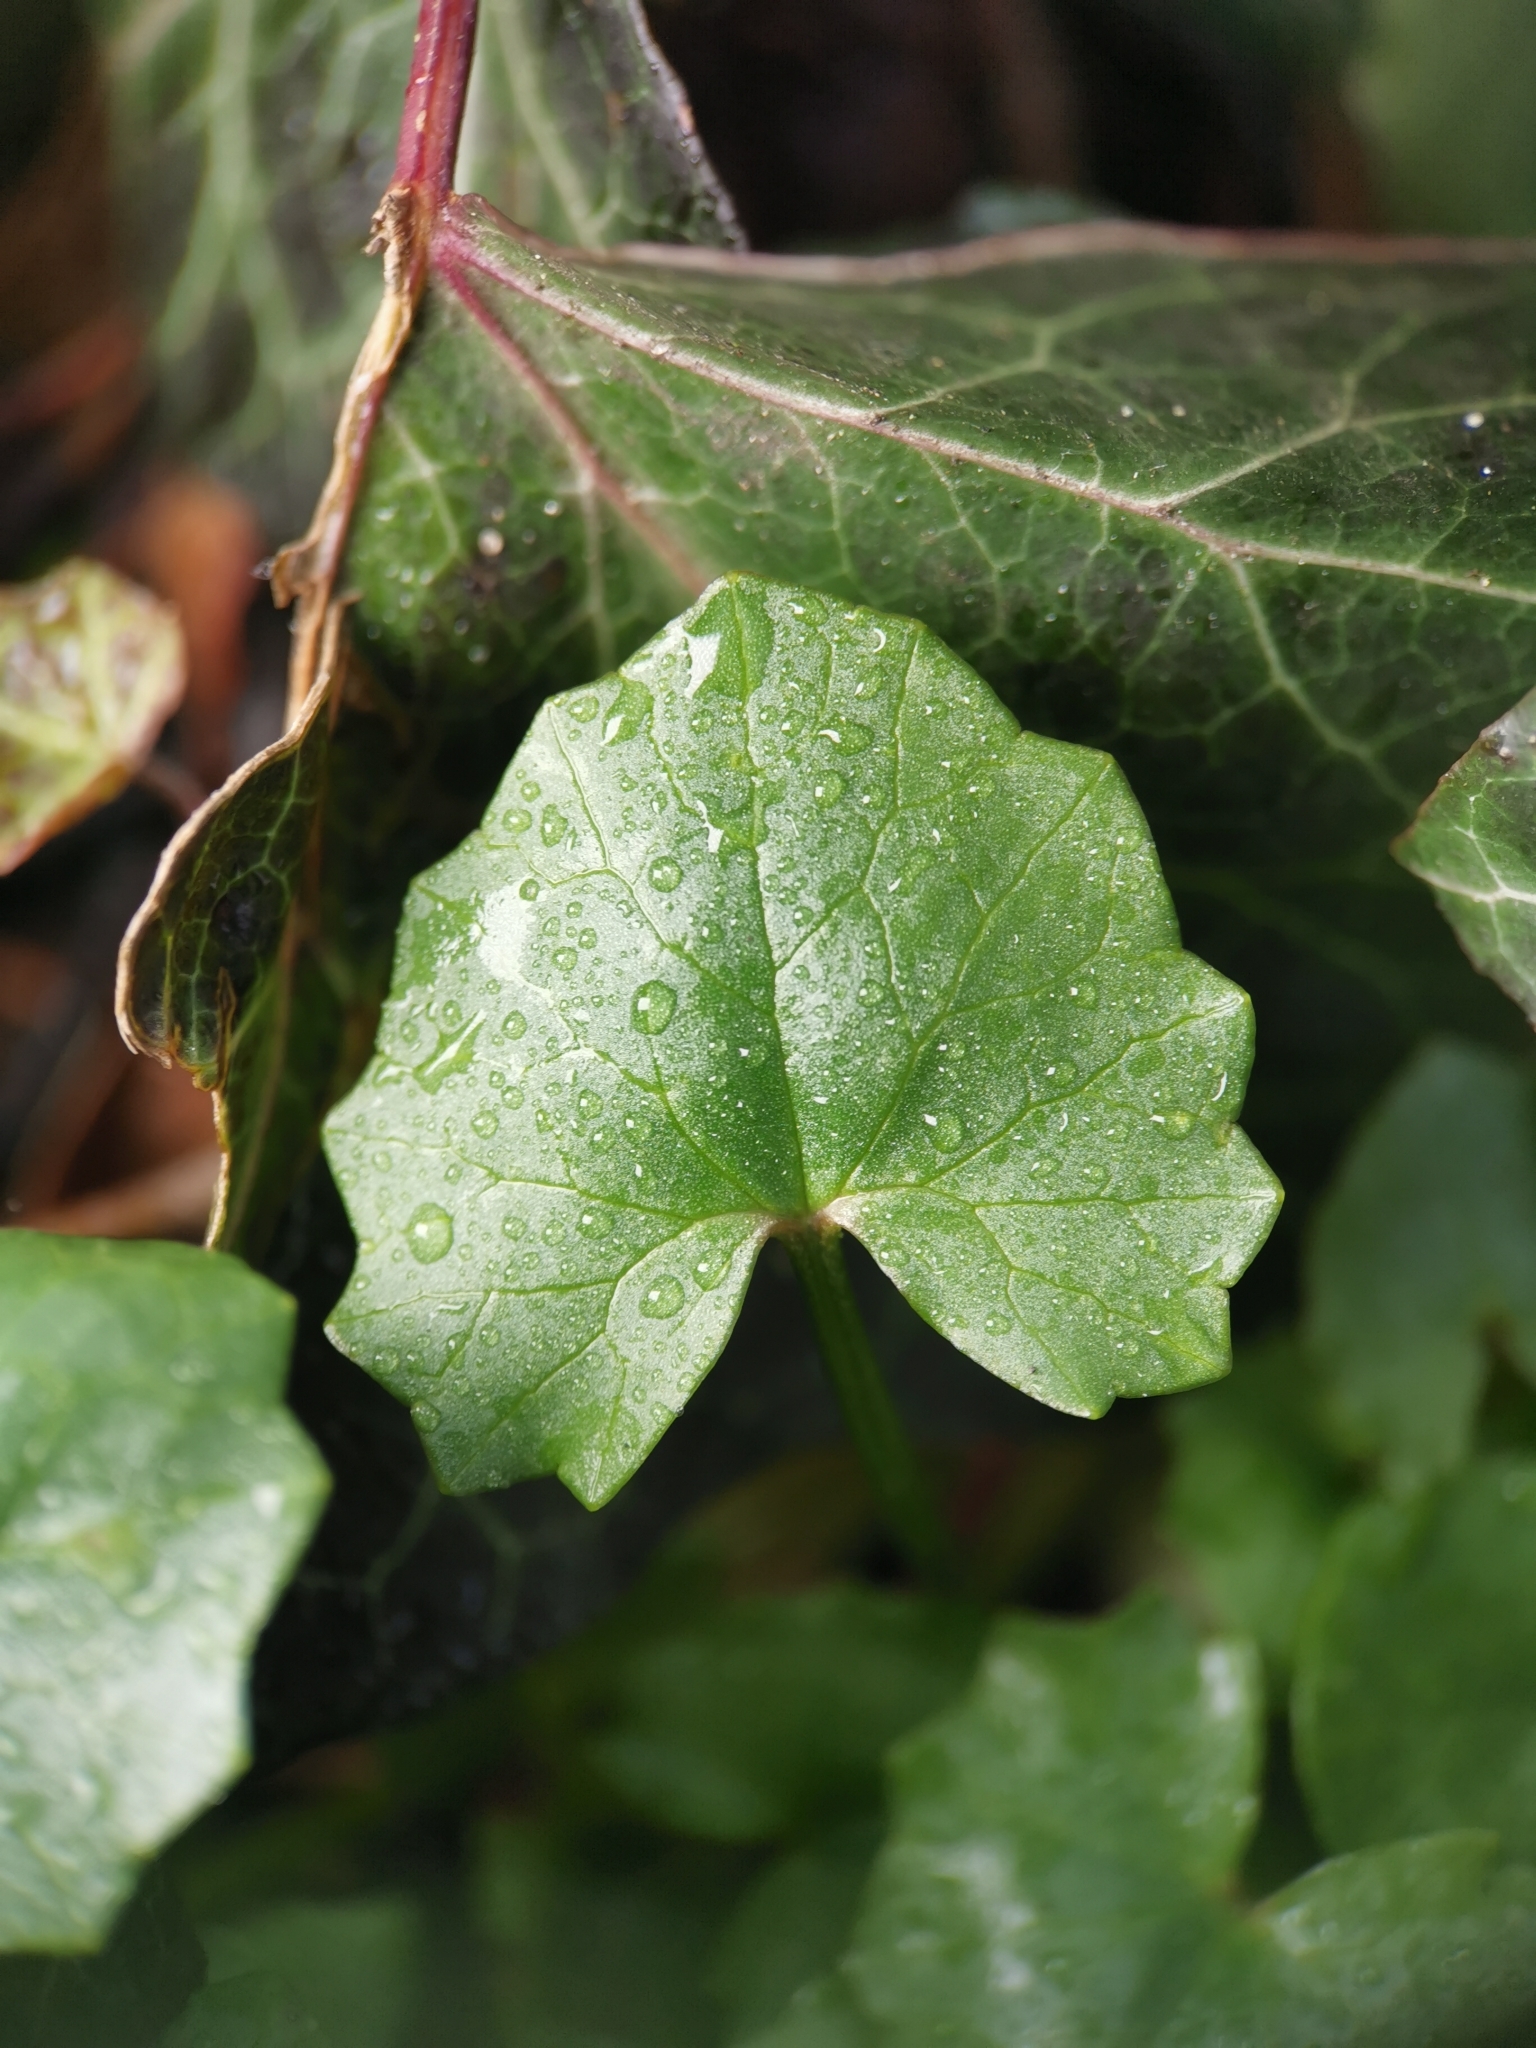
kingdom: Plantae
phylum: Tracheophyta
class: Magnoliopsida
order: Ranunculales
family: Ranunculaceae
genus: Ficaria
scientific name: Ficaria verna
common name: Lesser celandine
